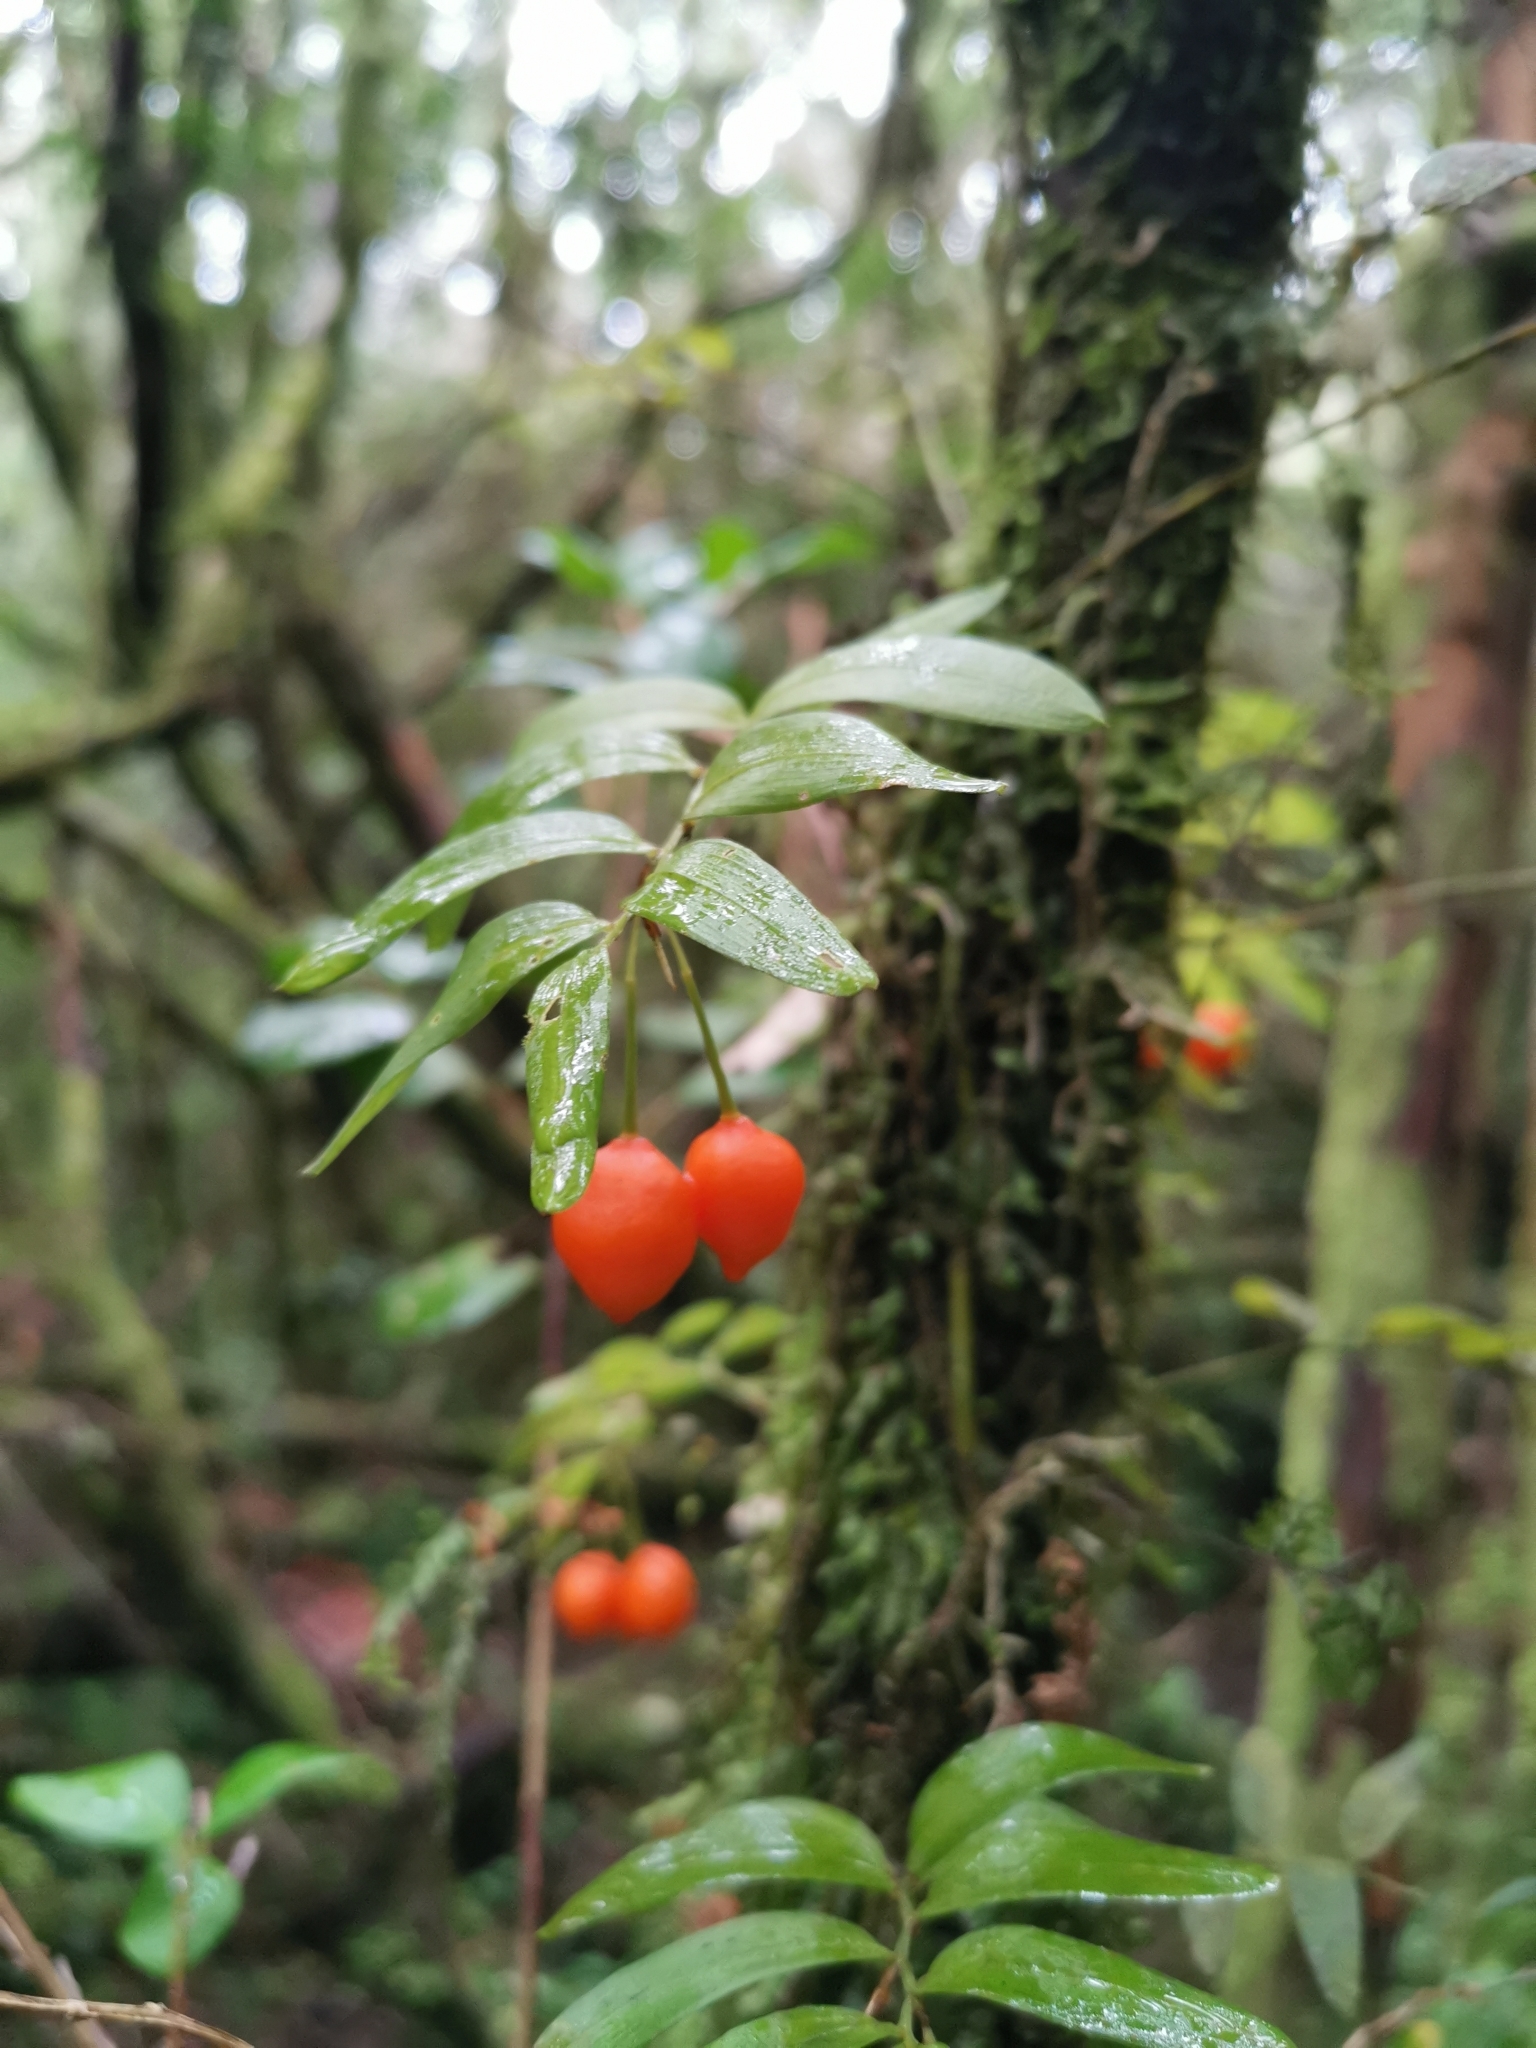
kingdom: Plantae
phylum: Tracheophyta
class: Liliopsida
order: Liliales
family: Alstroemeriaceae
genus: Luzuriaga
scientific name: Luzuriaga radicans
